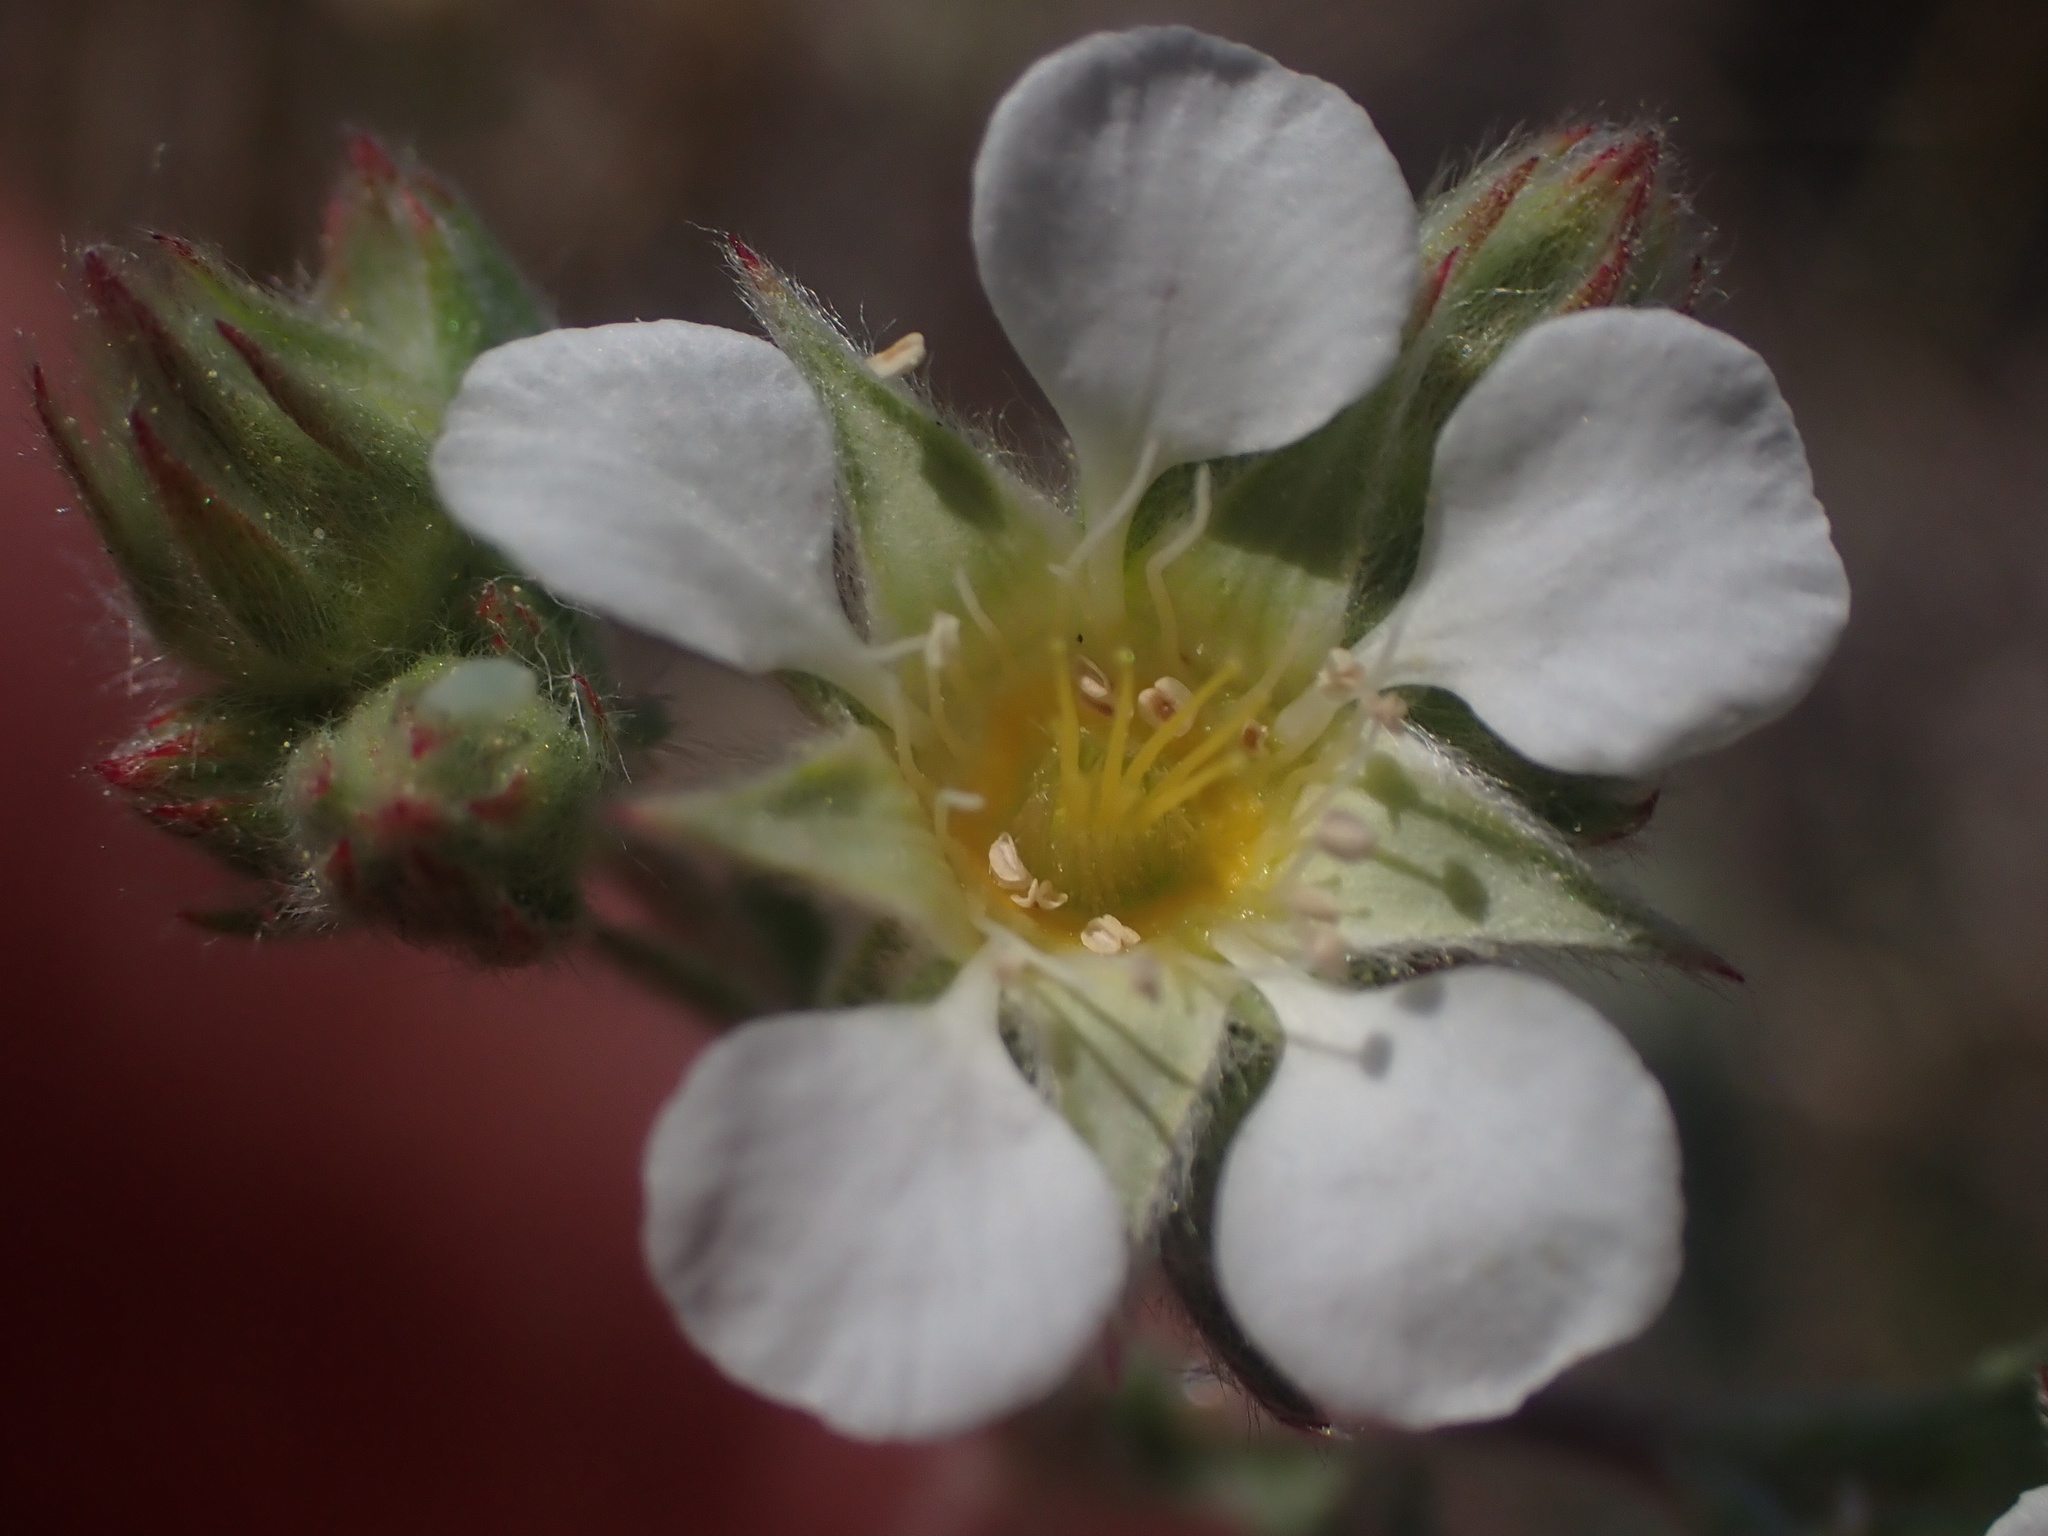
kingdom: Plantae
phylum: Tracheophyta
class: Magnoliopsida
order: Rosales
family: Rosaceae
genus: Potentilla
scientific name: Potentilla sericoleuca
